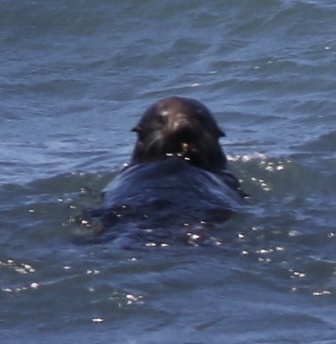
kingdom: Animalia
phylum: Chordata
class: Mammalia
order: Carnivora
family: Mustelidae
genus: Enhydra
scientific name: Enhydra lutris
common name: Sea otter
